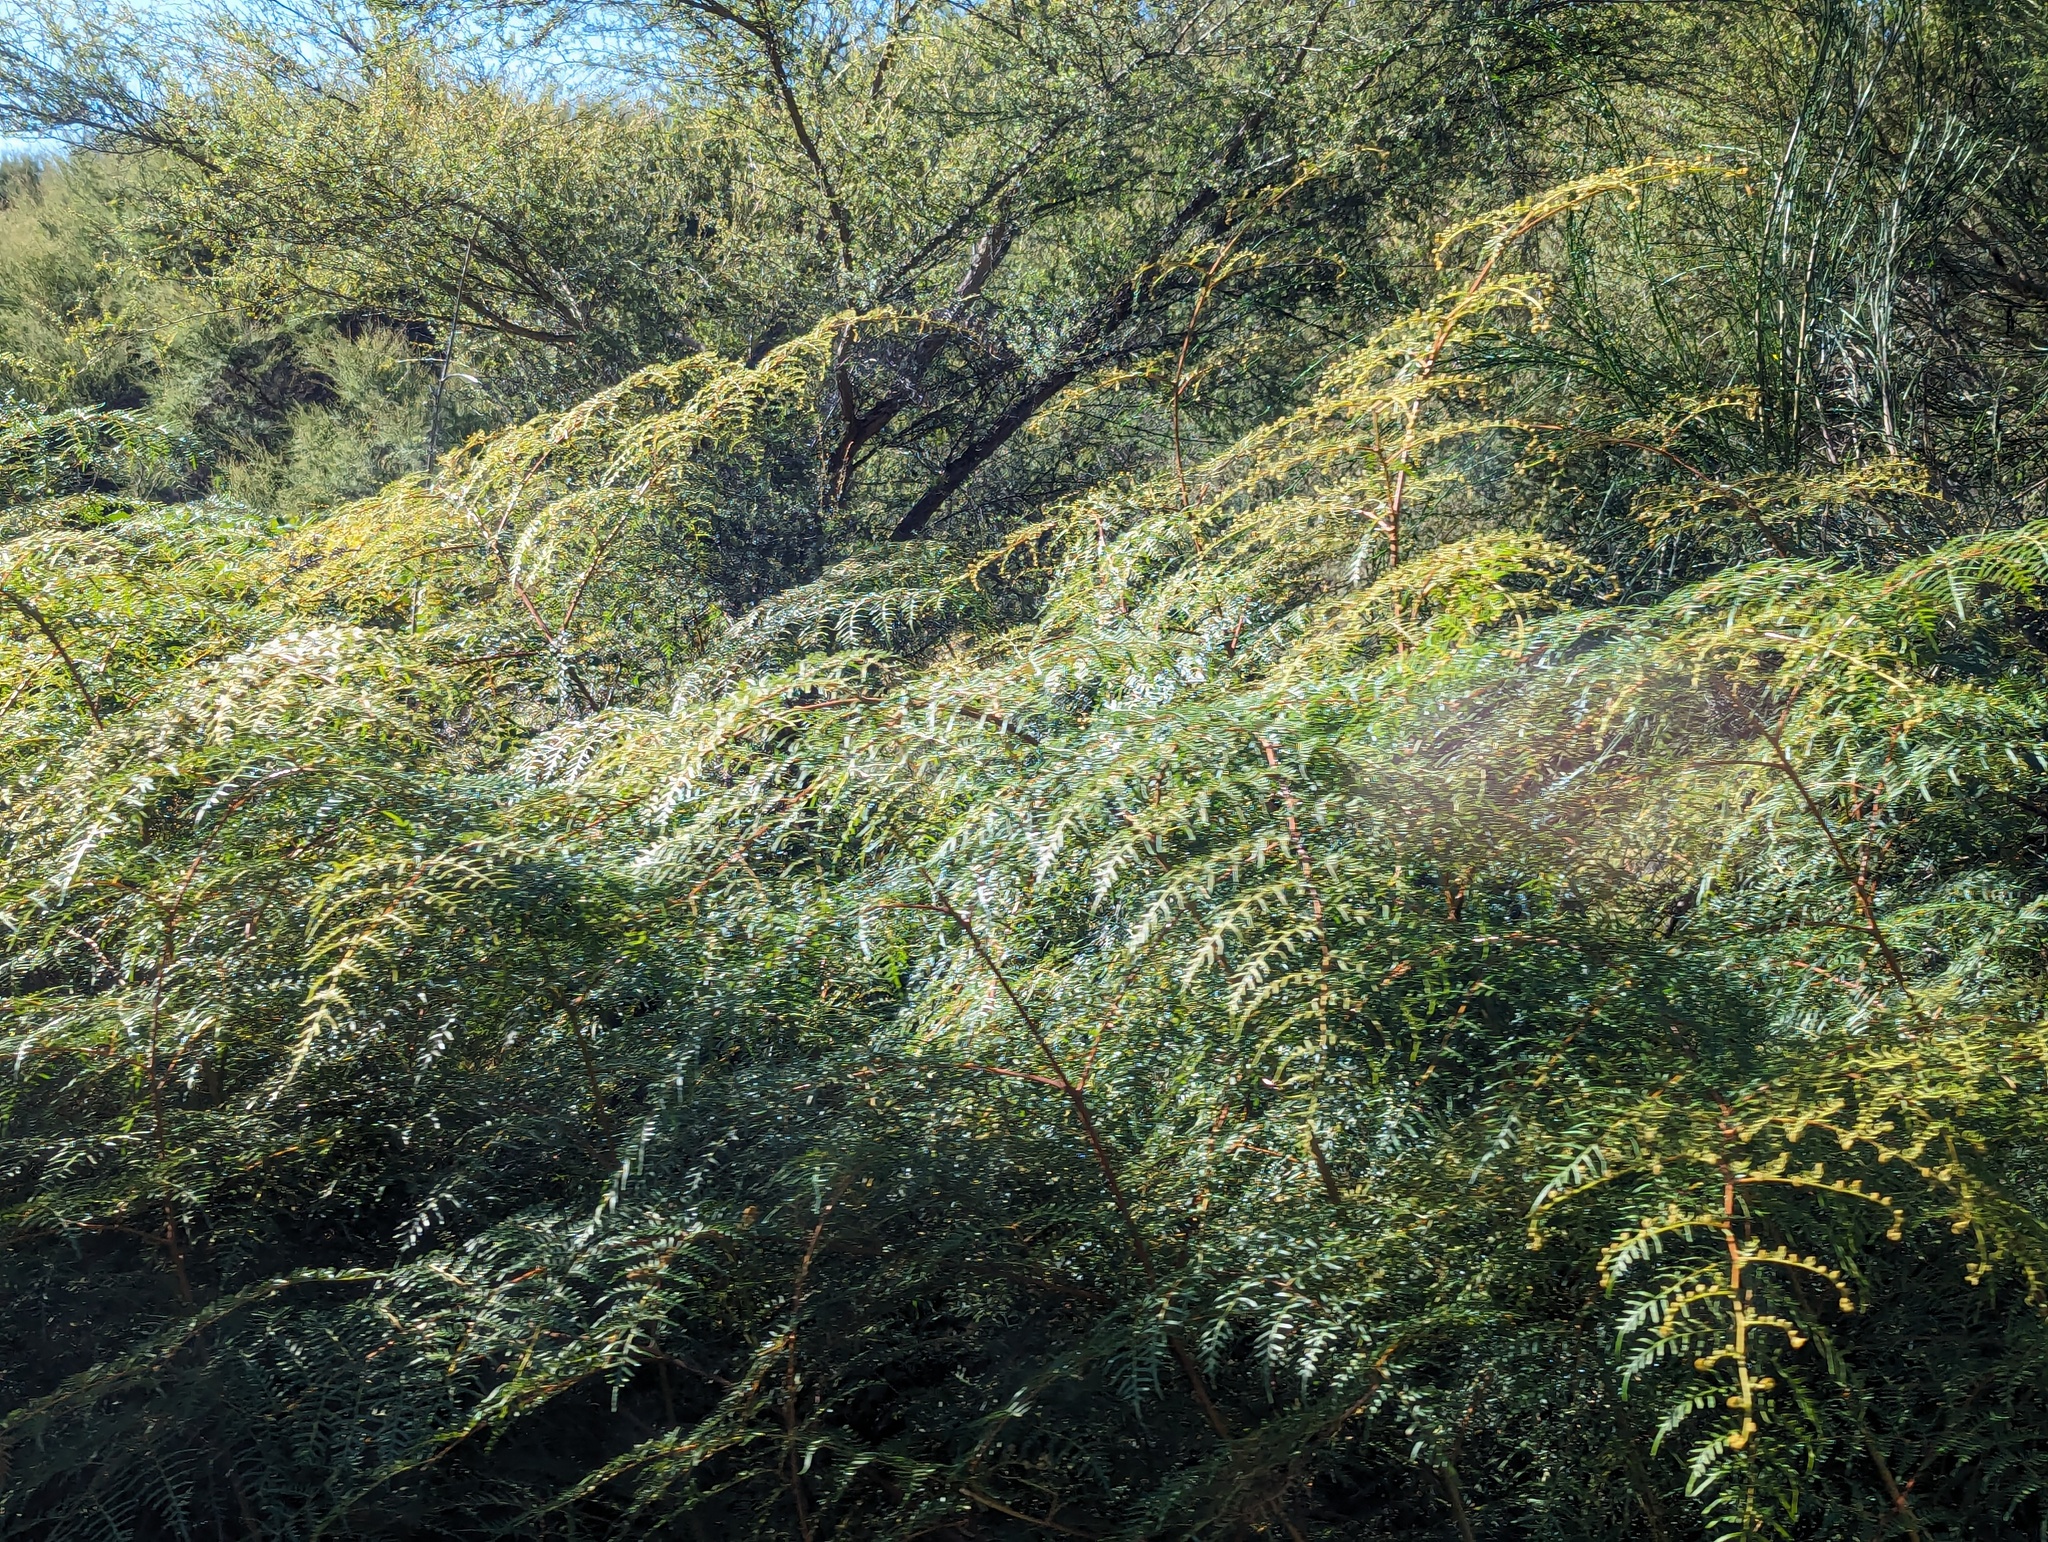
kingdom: Plantae
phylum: Tracheophyta
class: Polypodiopsida
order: Polypodiales
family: Dennstaedtiaceae
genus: Pteridium
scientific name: Pteridium esculentum
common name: Bracken fern
